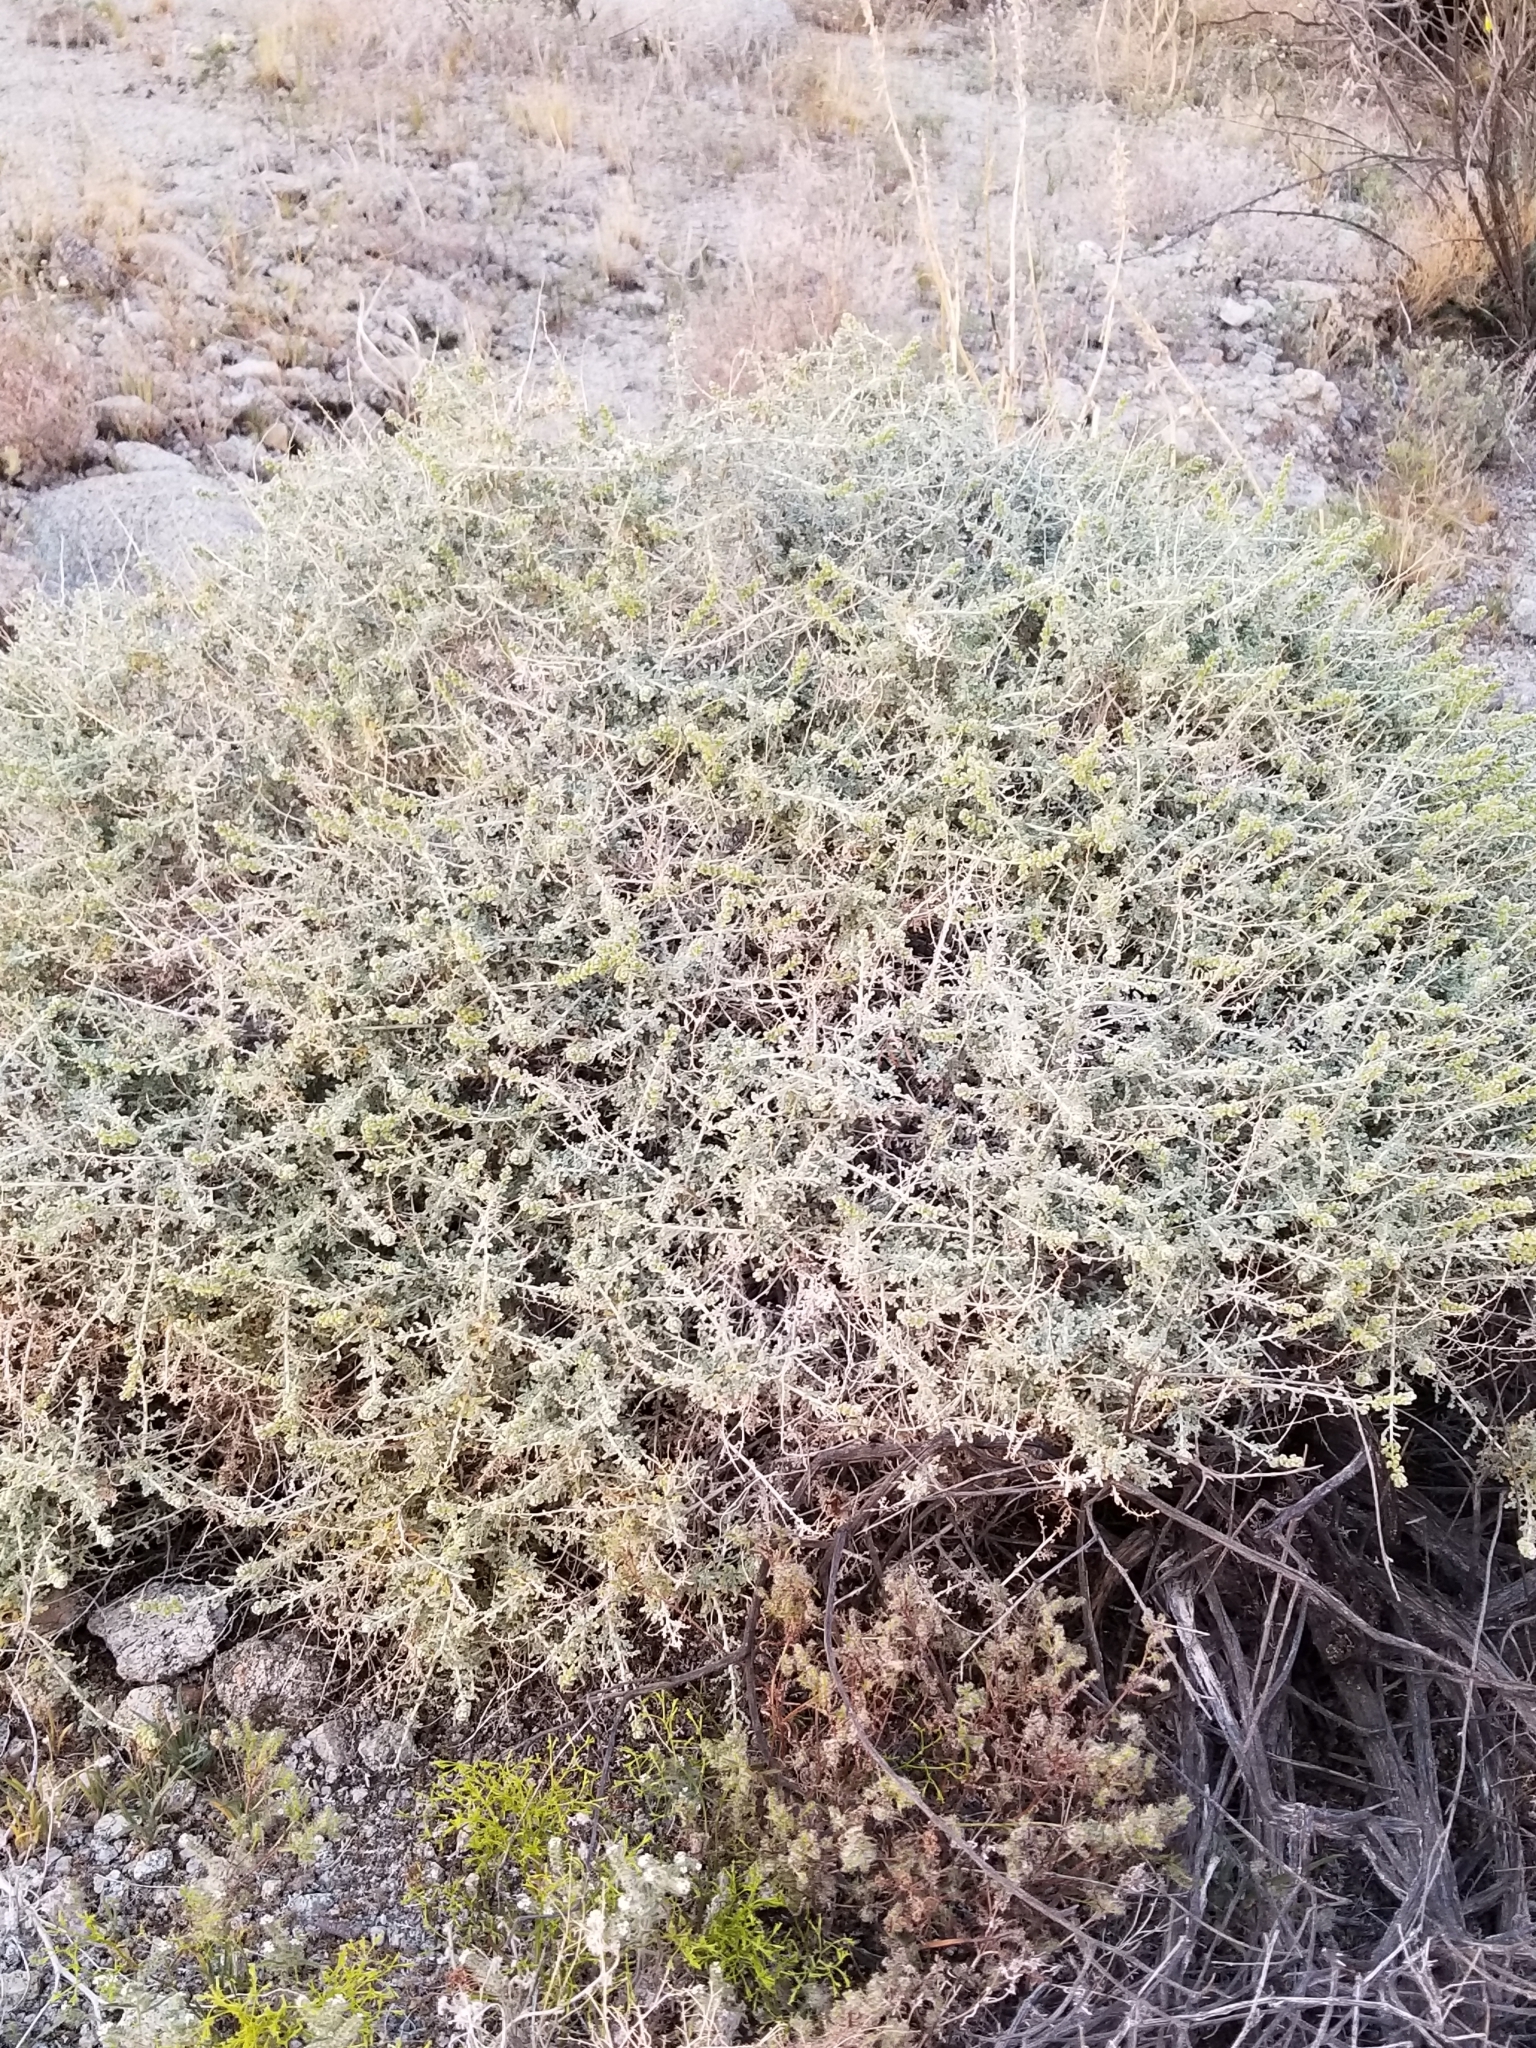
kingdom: Plantae
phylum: Tracheophyta
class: Magnoliopsida
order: Asterales
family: Asteraceae
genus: Ambrosia
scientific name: Ambrosia dumosa
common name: Bur-sage
